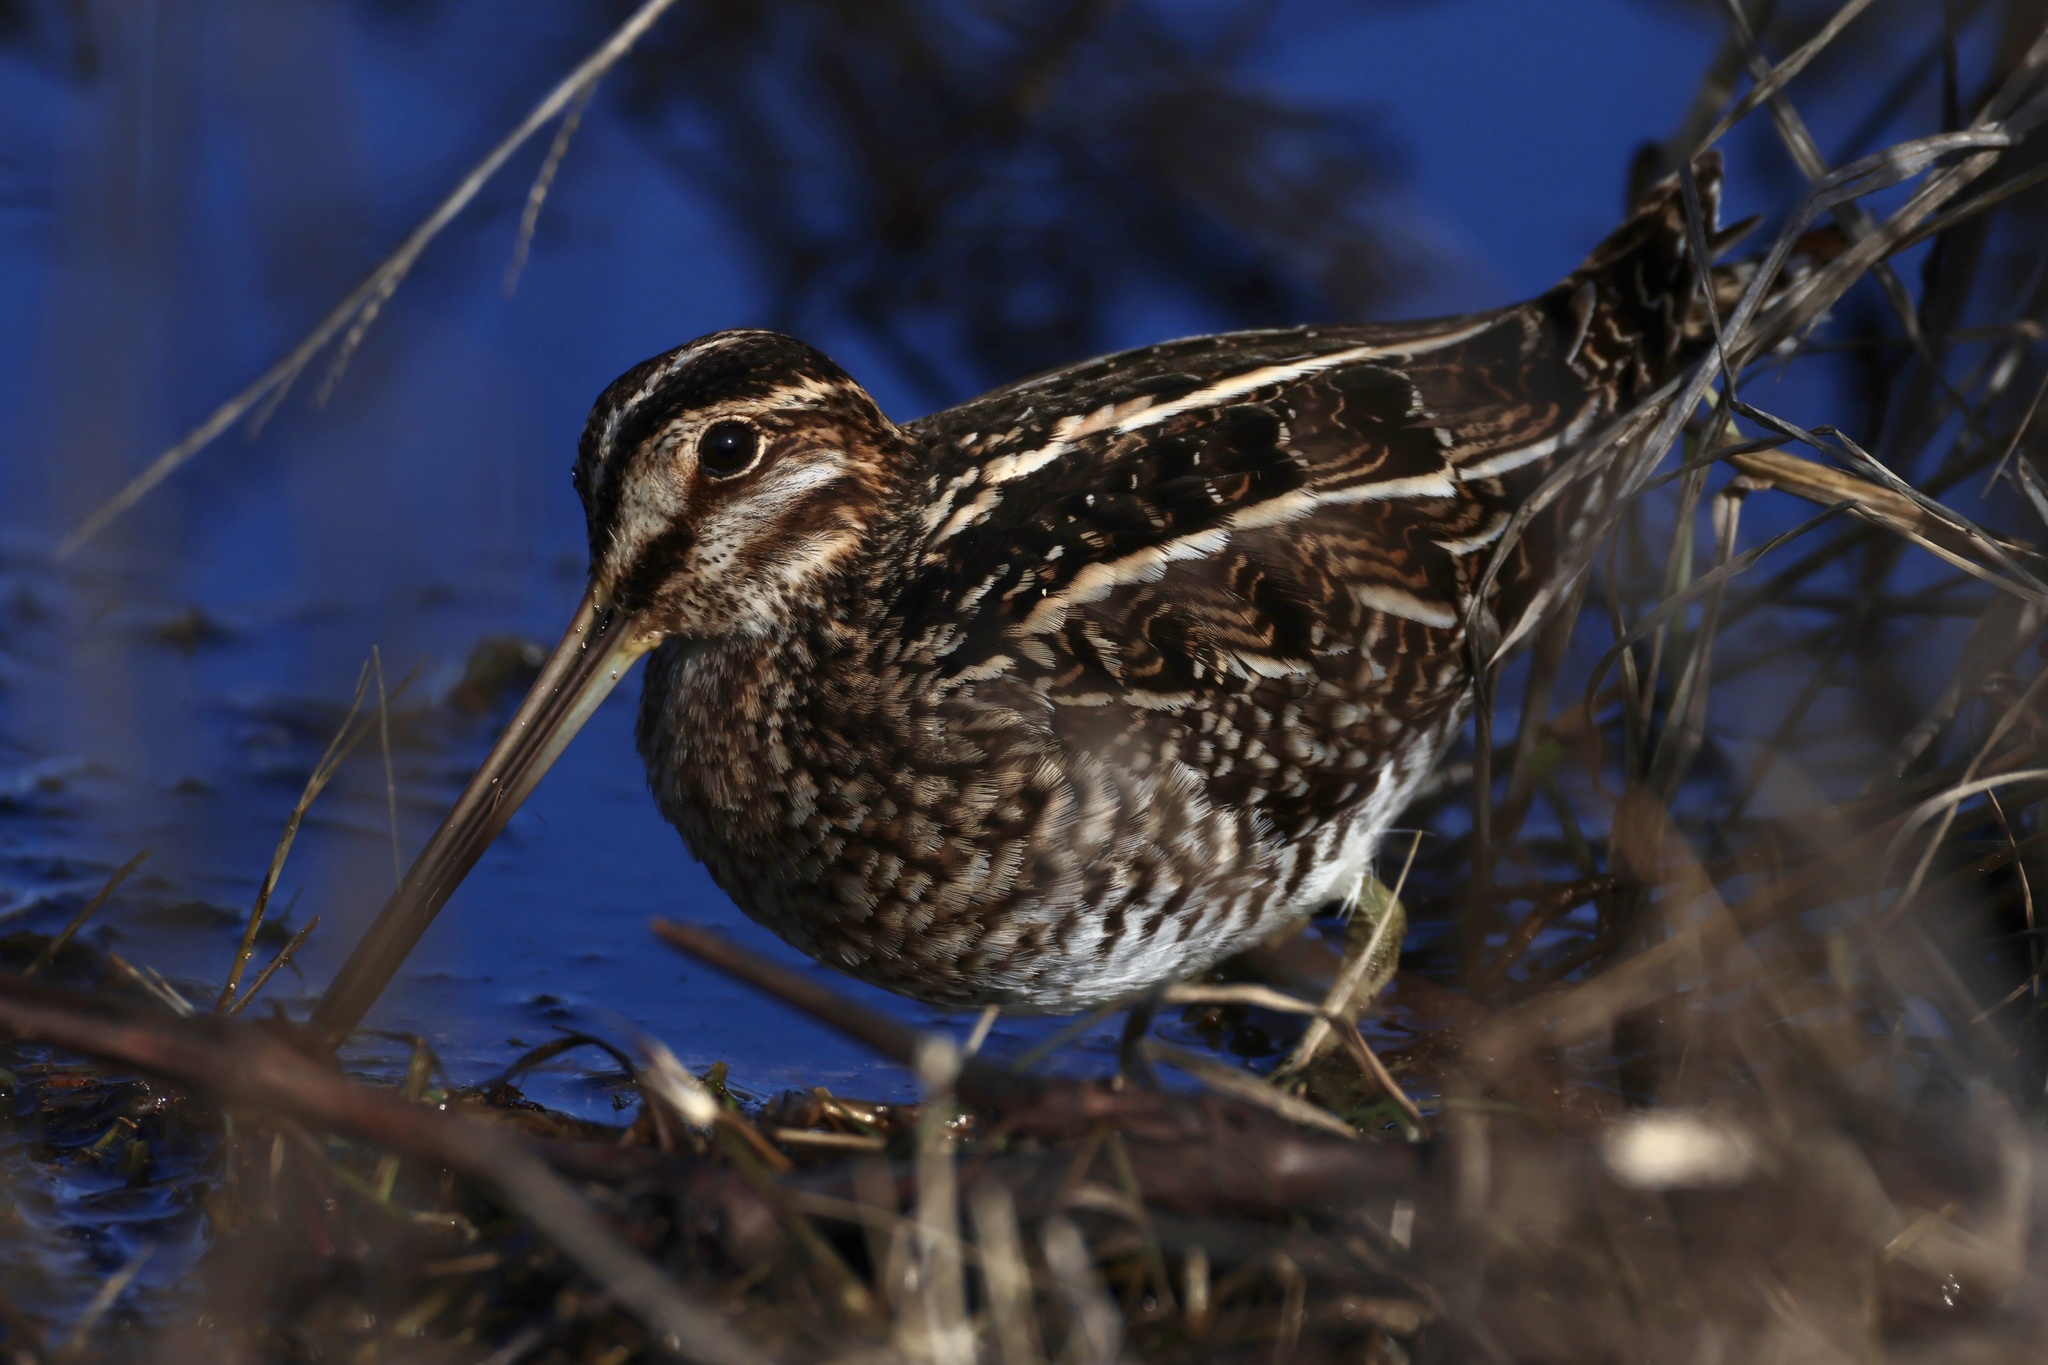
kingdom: Animalia
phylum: Chordata
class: Aves
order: Charadriiformes
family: Scolopacidae
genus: Gallinago
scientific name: Gallinago delicata
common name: Wilson's snipe
